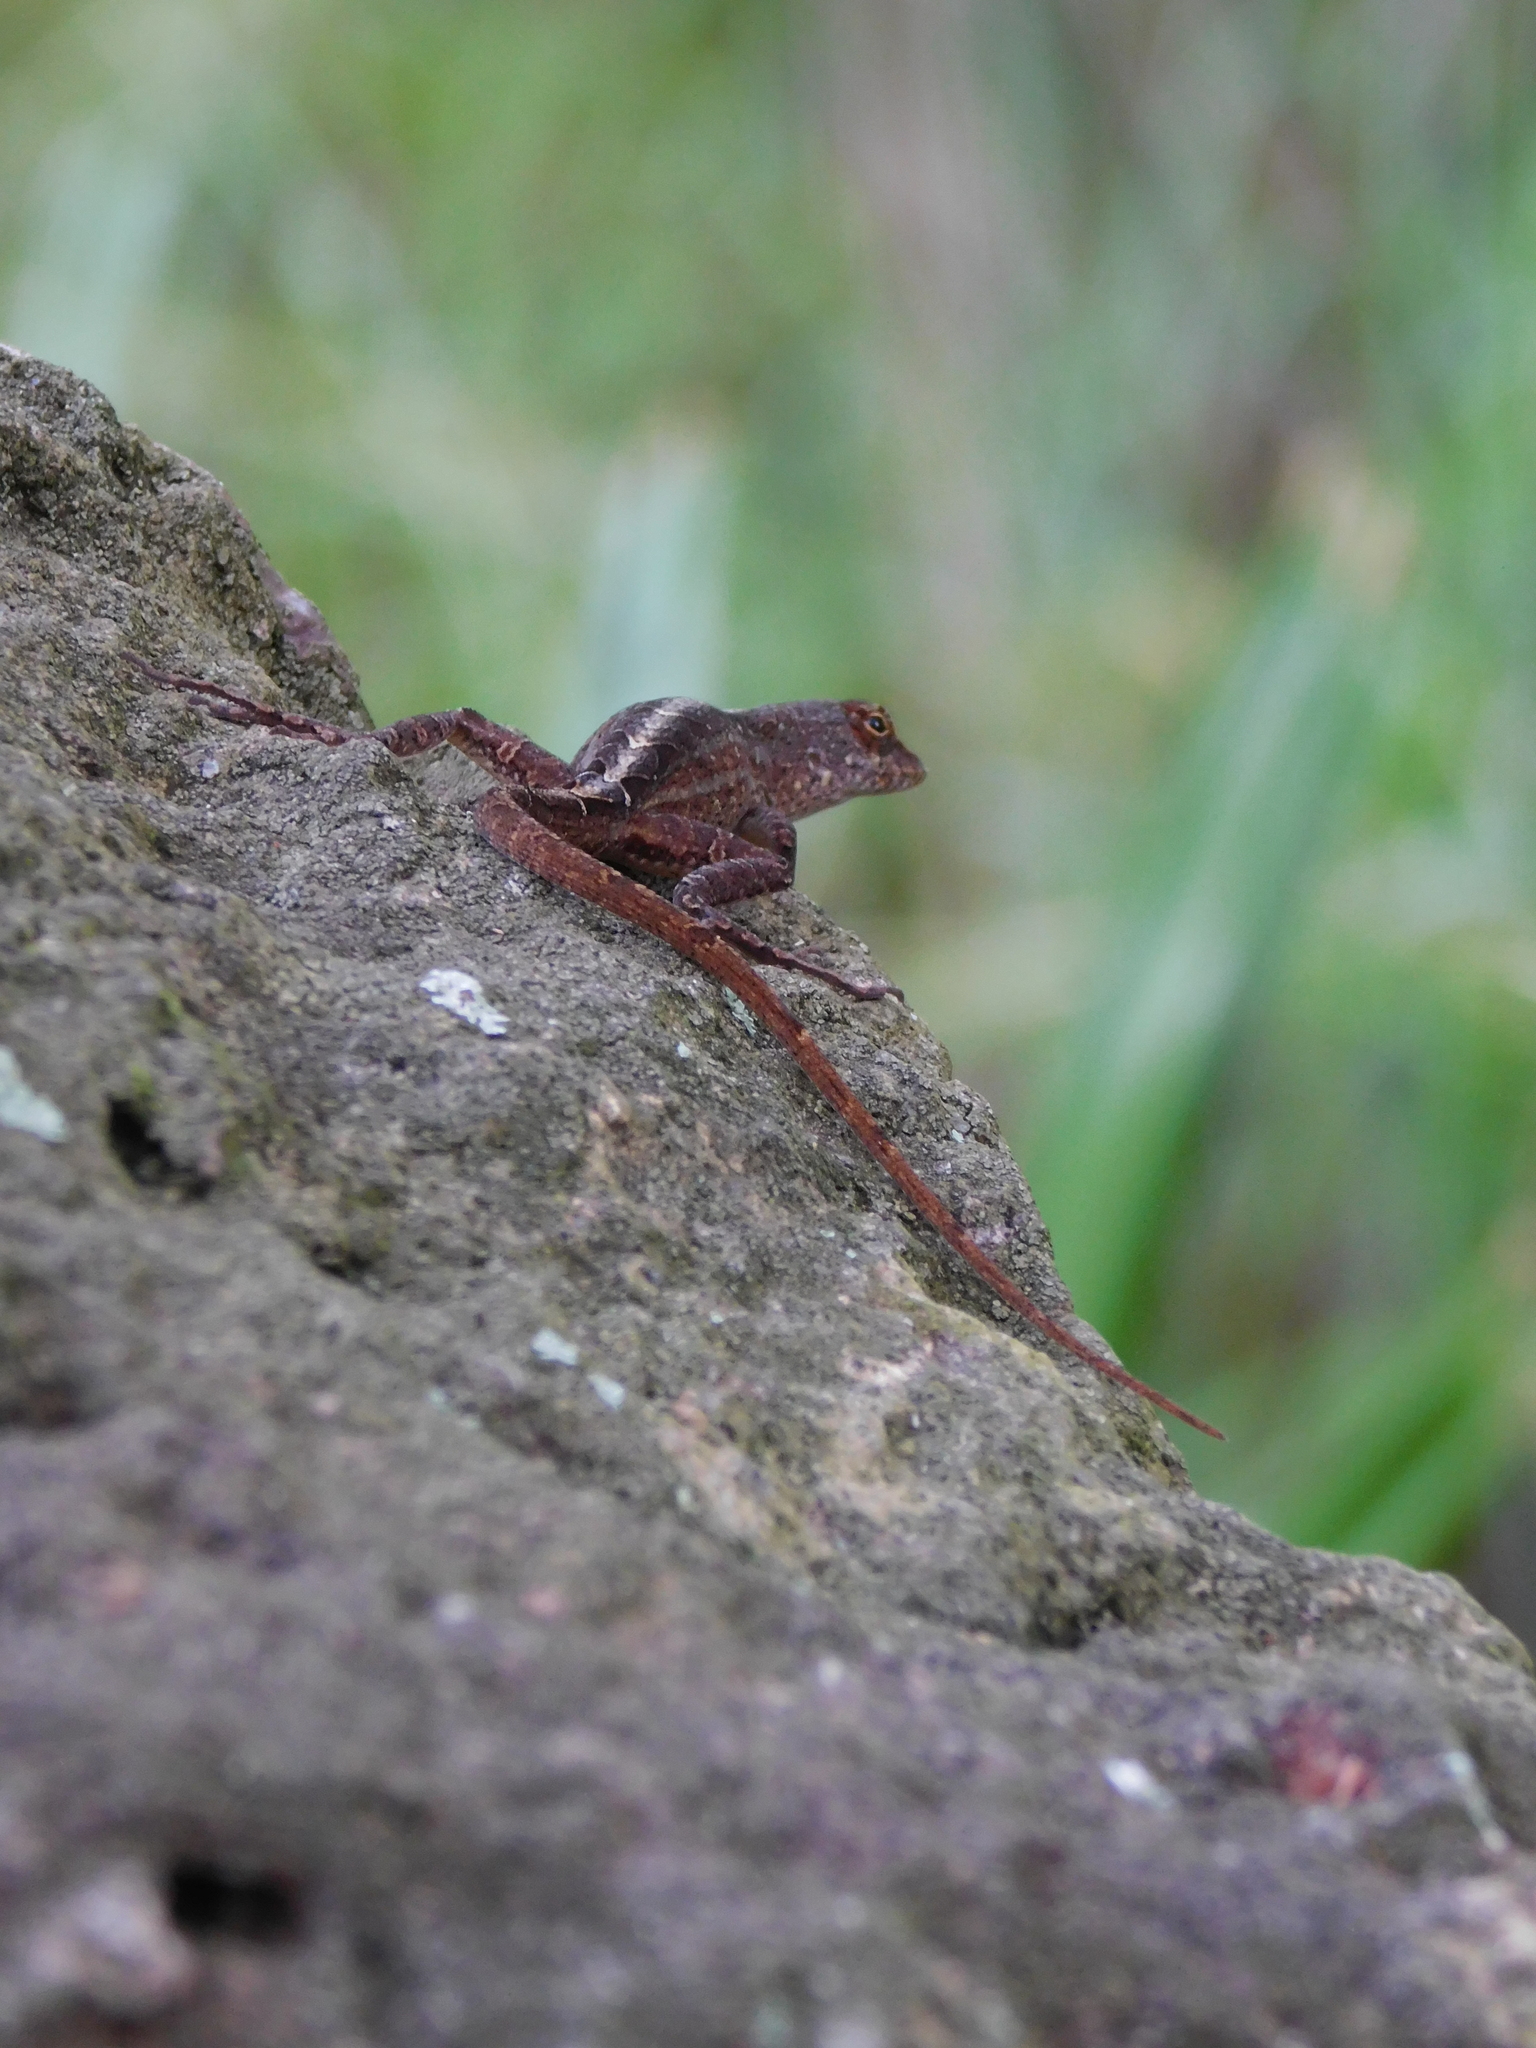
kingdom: Animalia
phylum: Chordata
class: Squamata
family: Dactyloidae
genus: Anolis
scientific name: Anolis sagrei
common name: Brown anole
